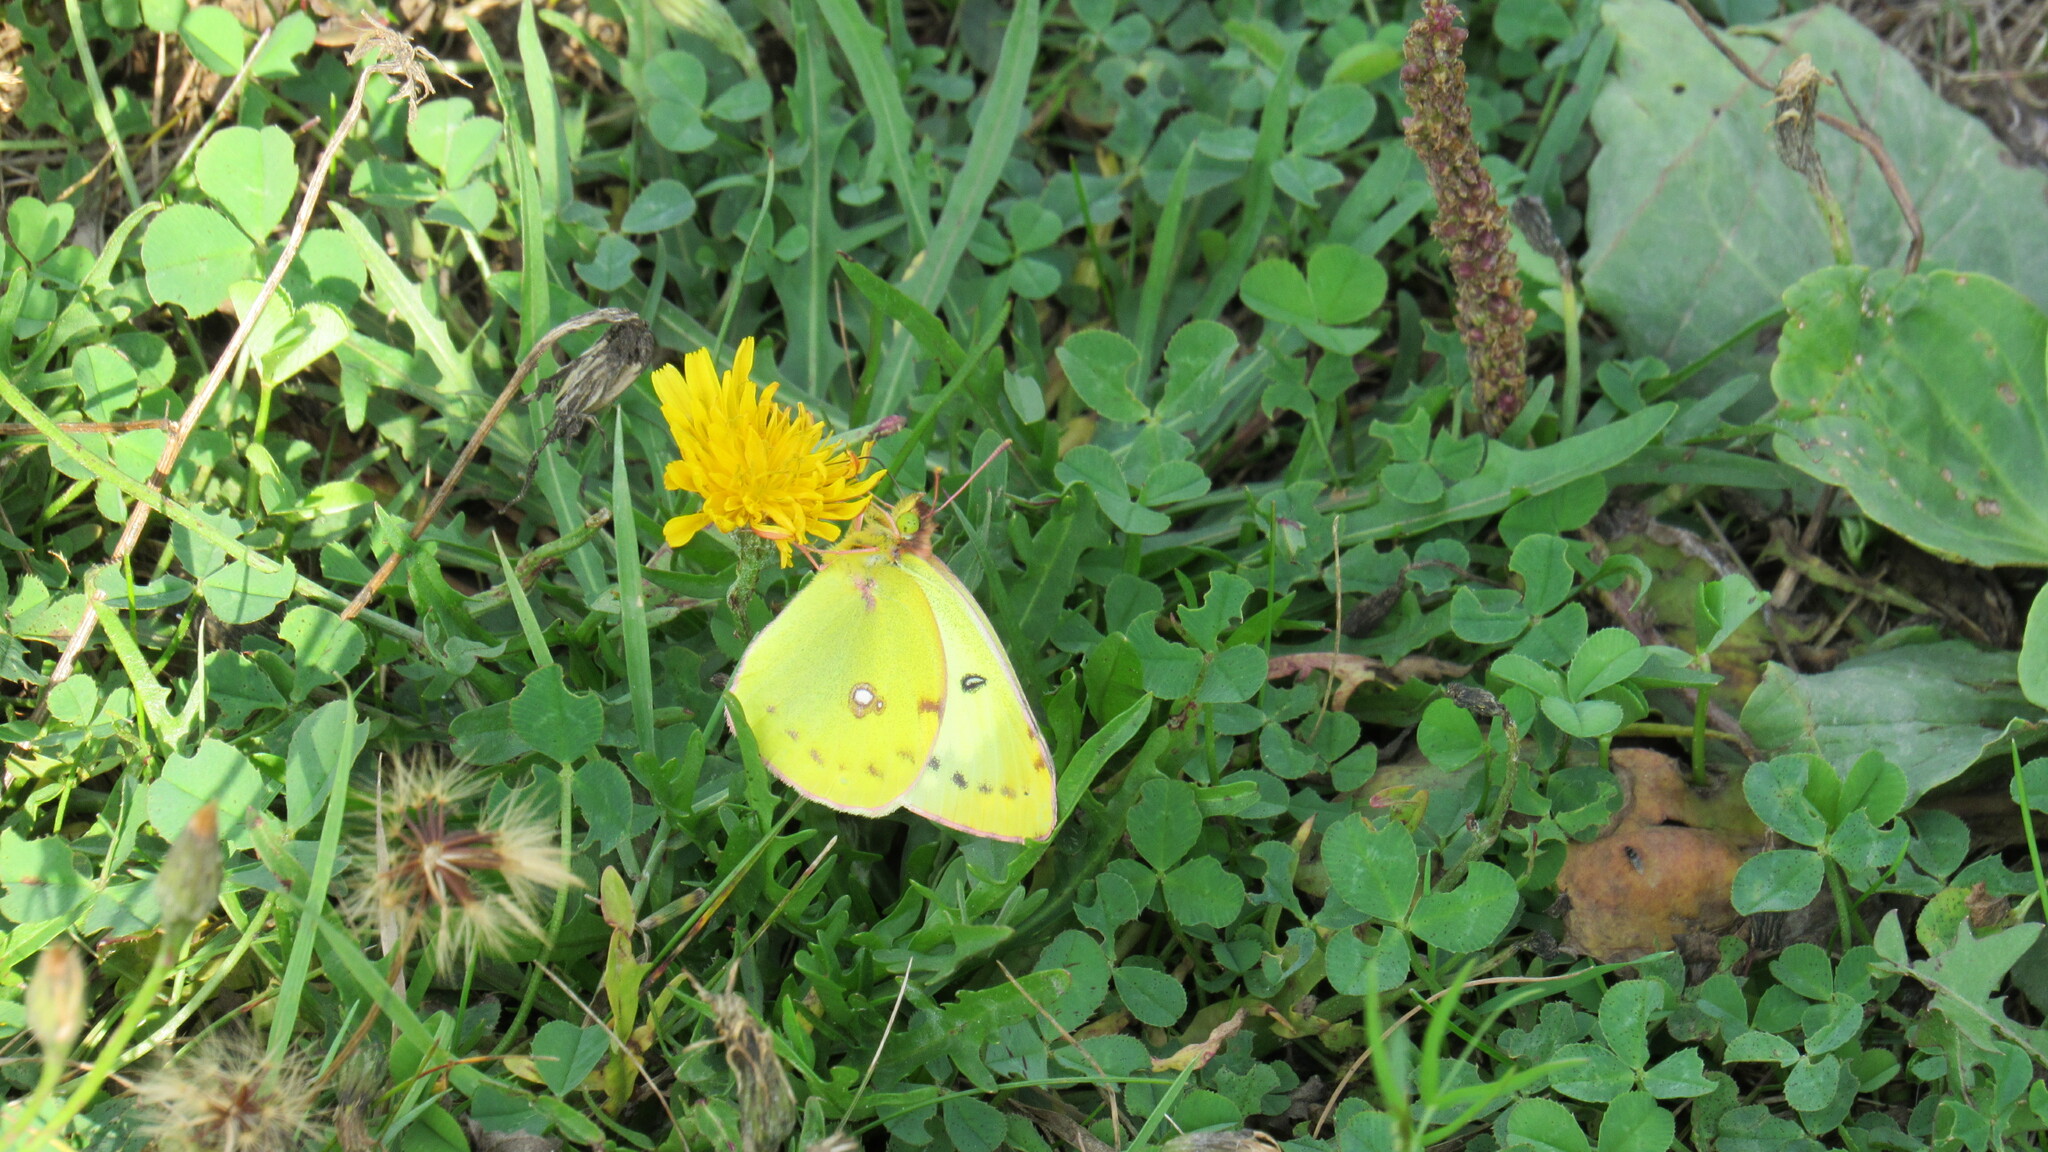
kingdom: Animalia
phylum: Arthropoda
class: Insecta
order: Lepidoptera
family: Pieridae
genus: Colias
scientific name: Colias hyale
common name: Pale clouded yellow
